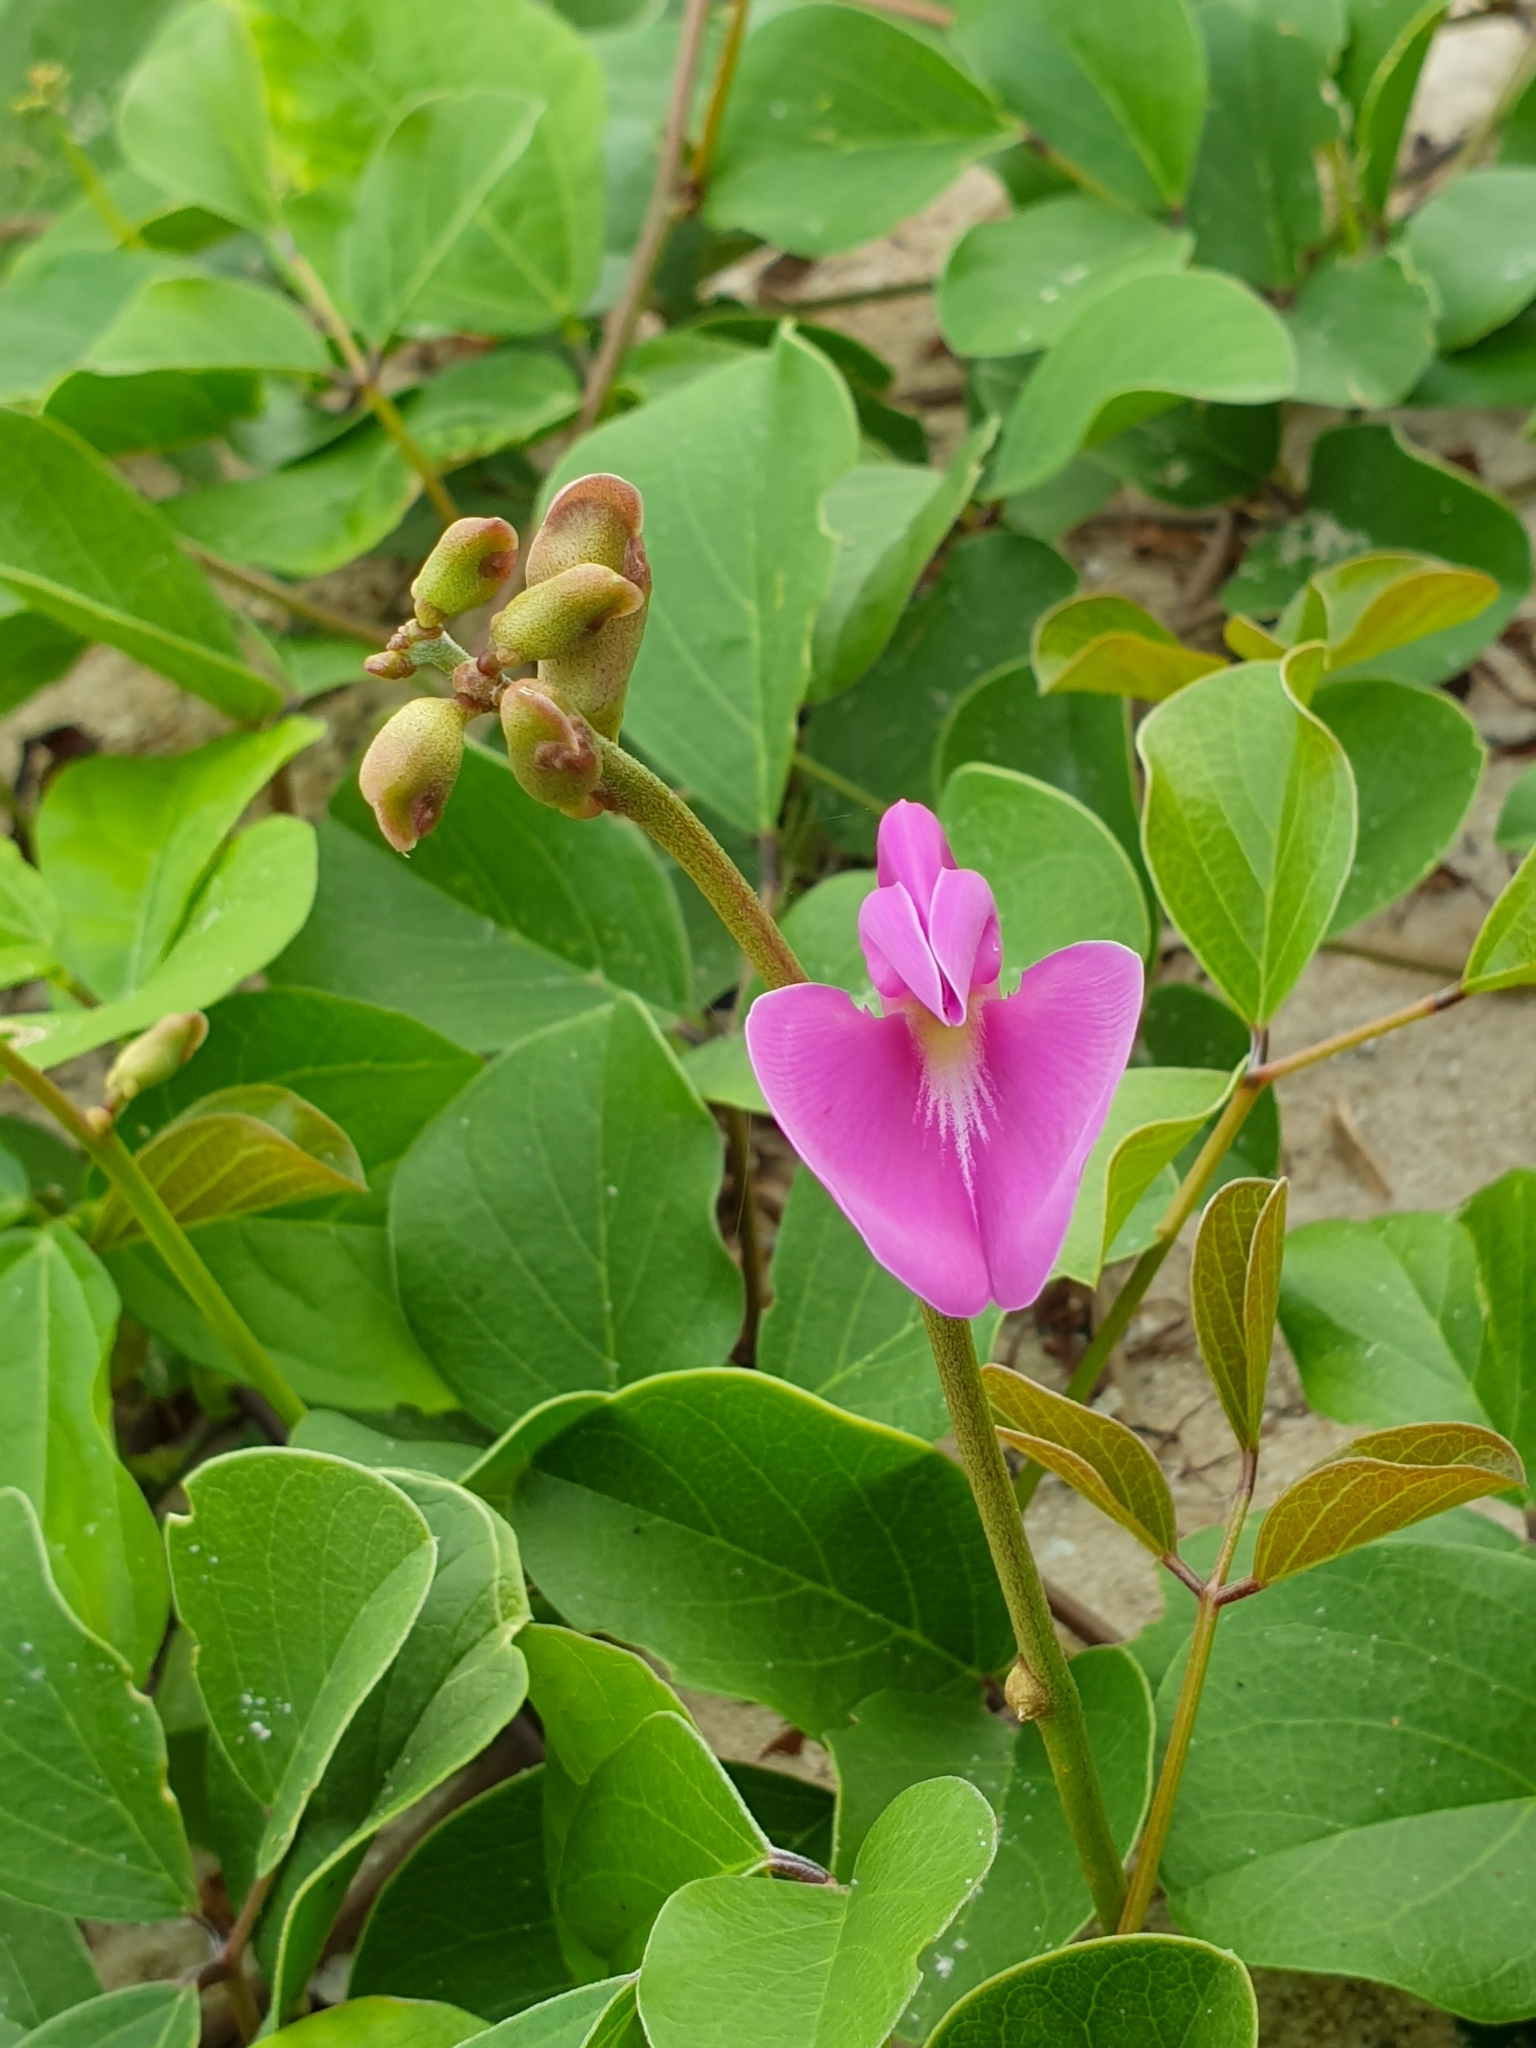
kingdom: Plantae
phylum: Tracheophyta
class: Magnoliopsida
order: Fabales
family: Fabaceae
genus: Canavalia
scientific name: Canavalia rosea
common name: Beach-bean
